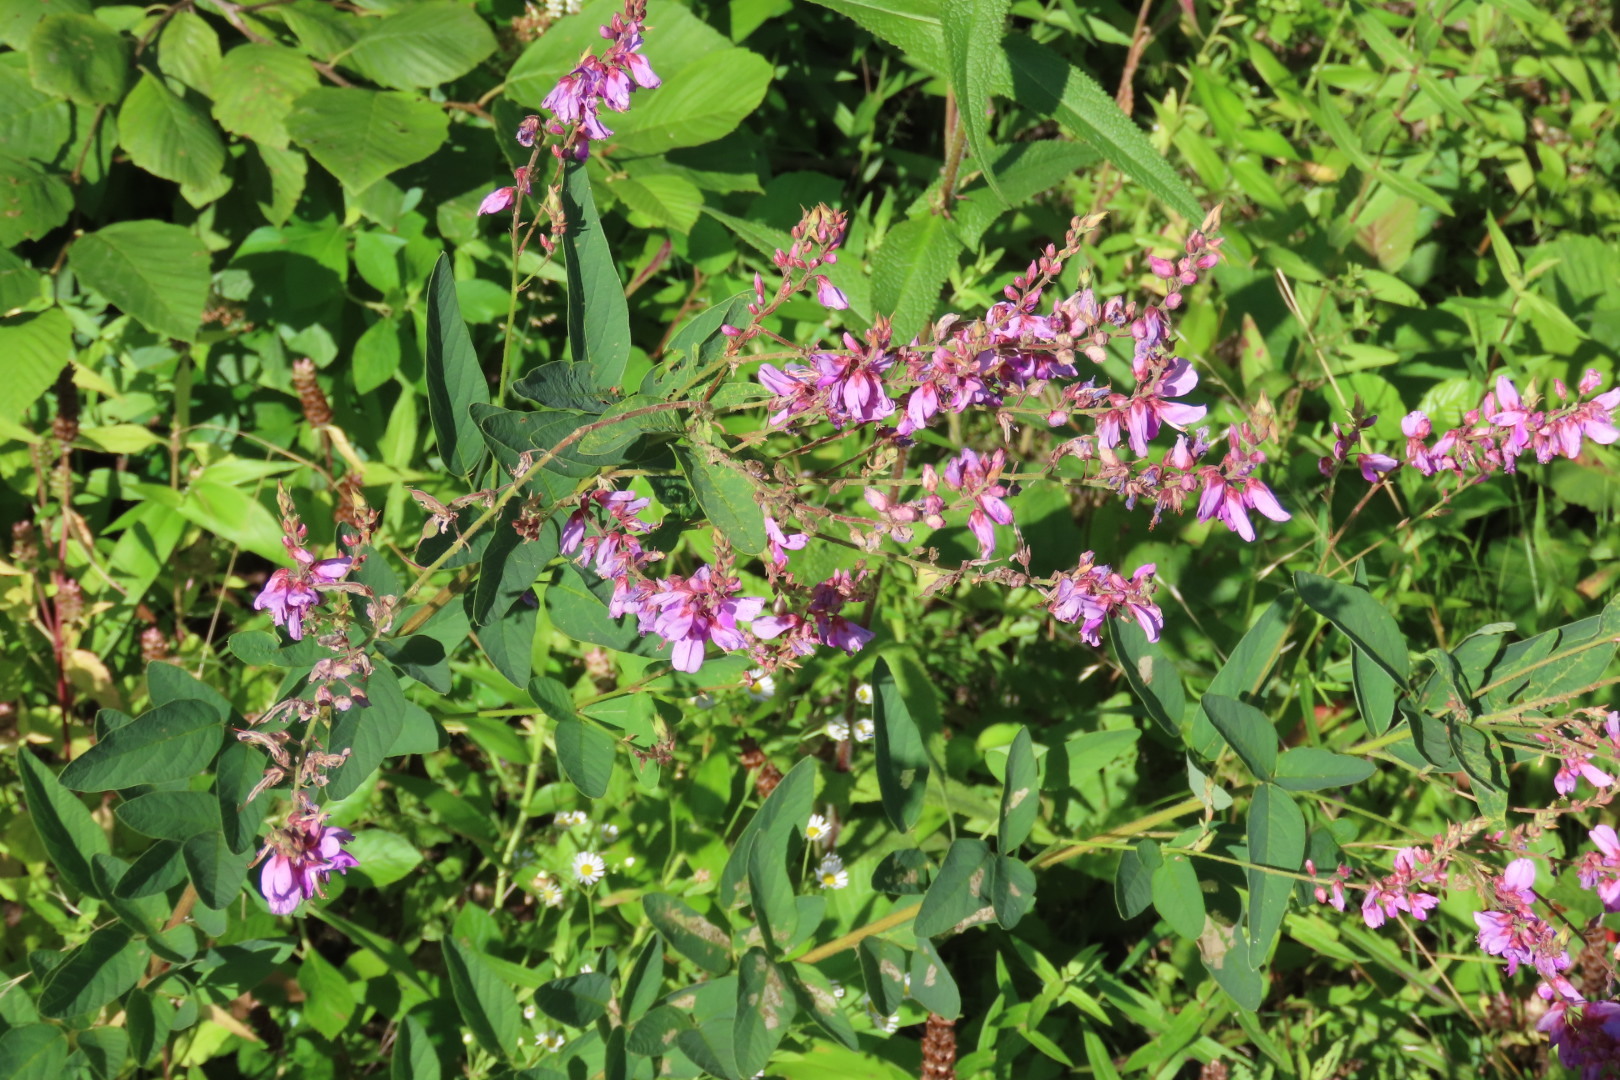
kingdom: Plantae
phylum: Tracheophyta
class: Magnoliopsida
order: Fabales
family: Fabaceae
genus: Desmodium
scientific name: Desmodium canadense
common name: Canada tick-trefoil
